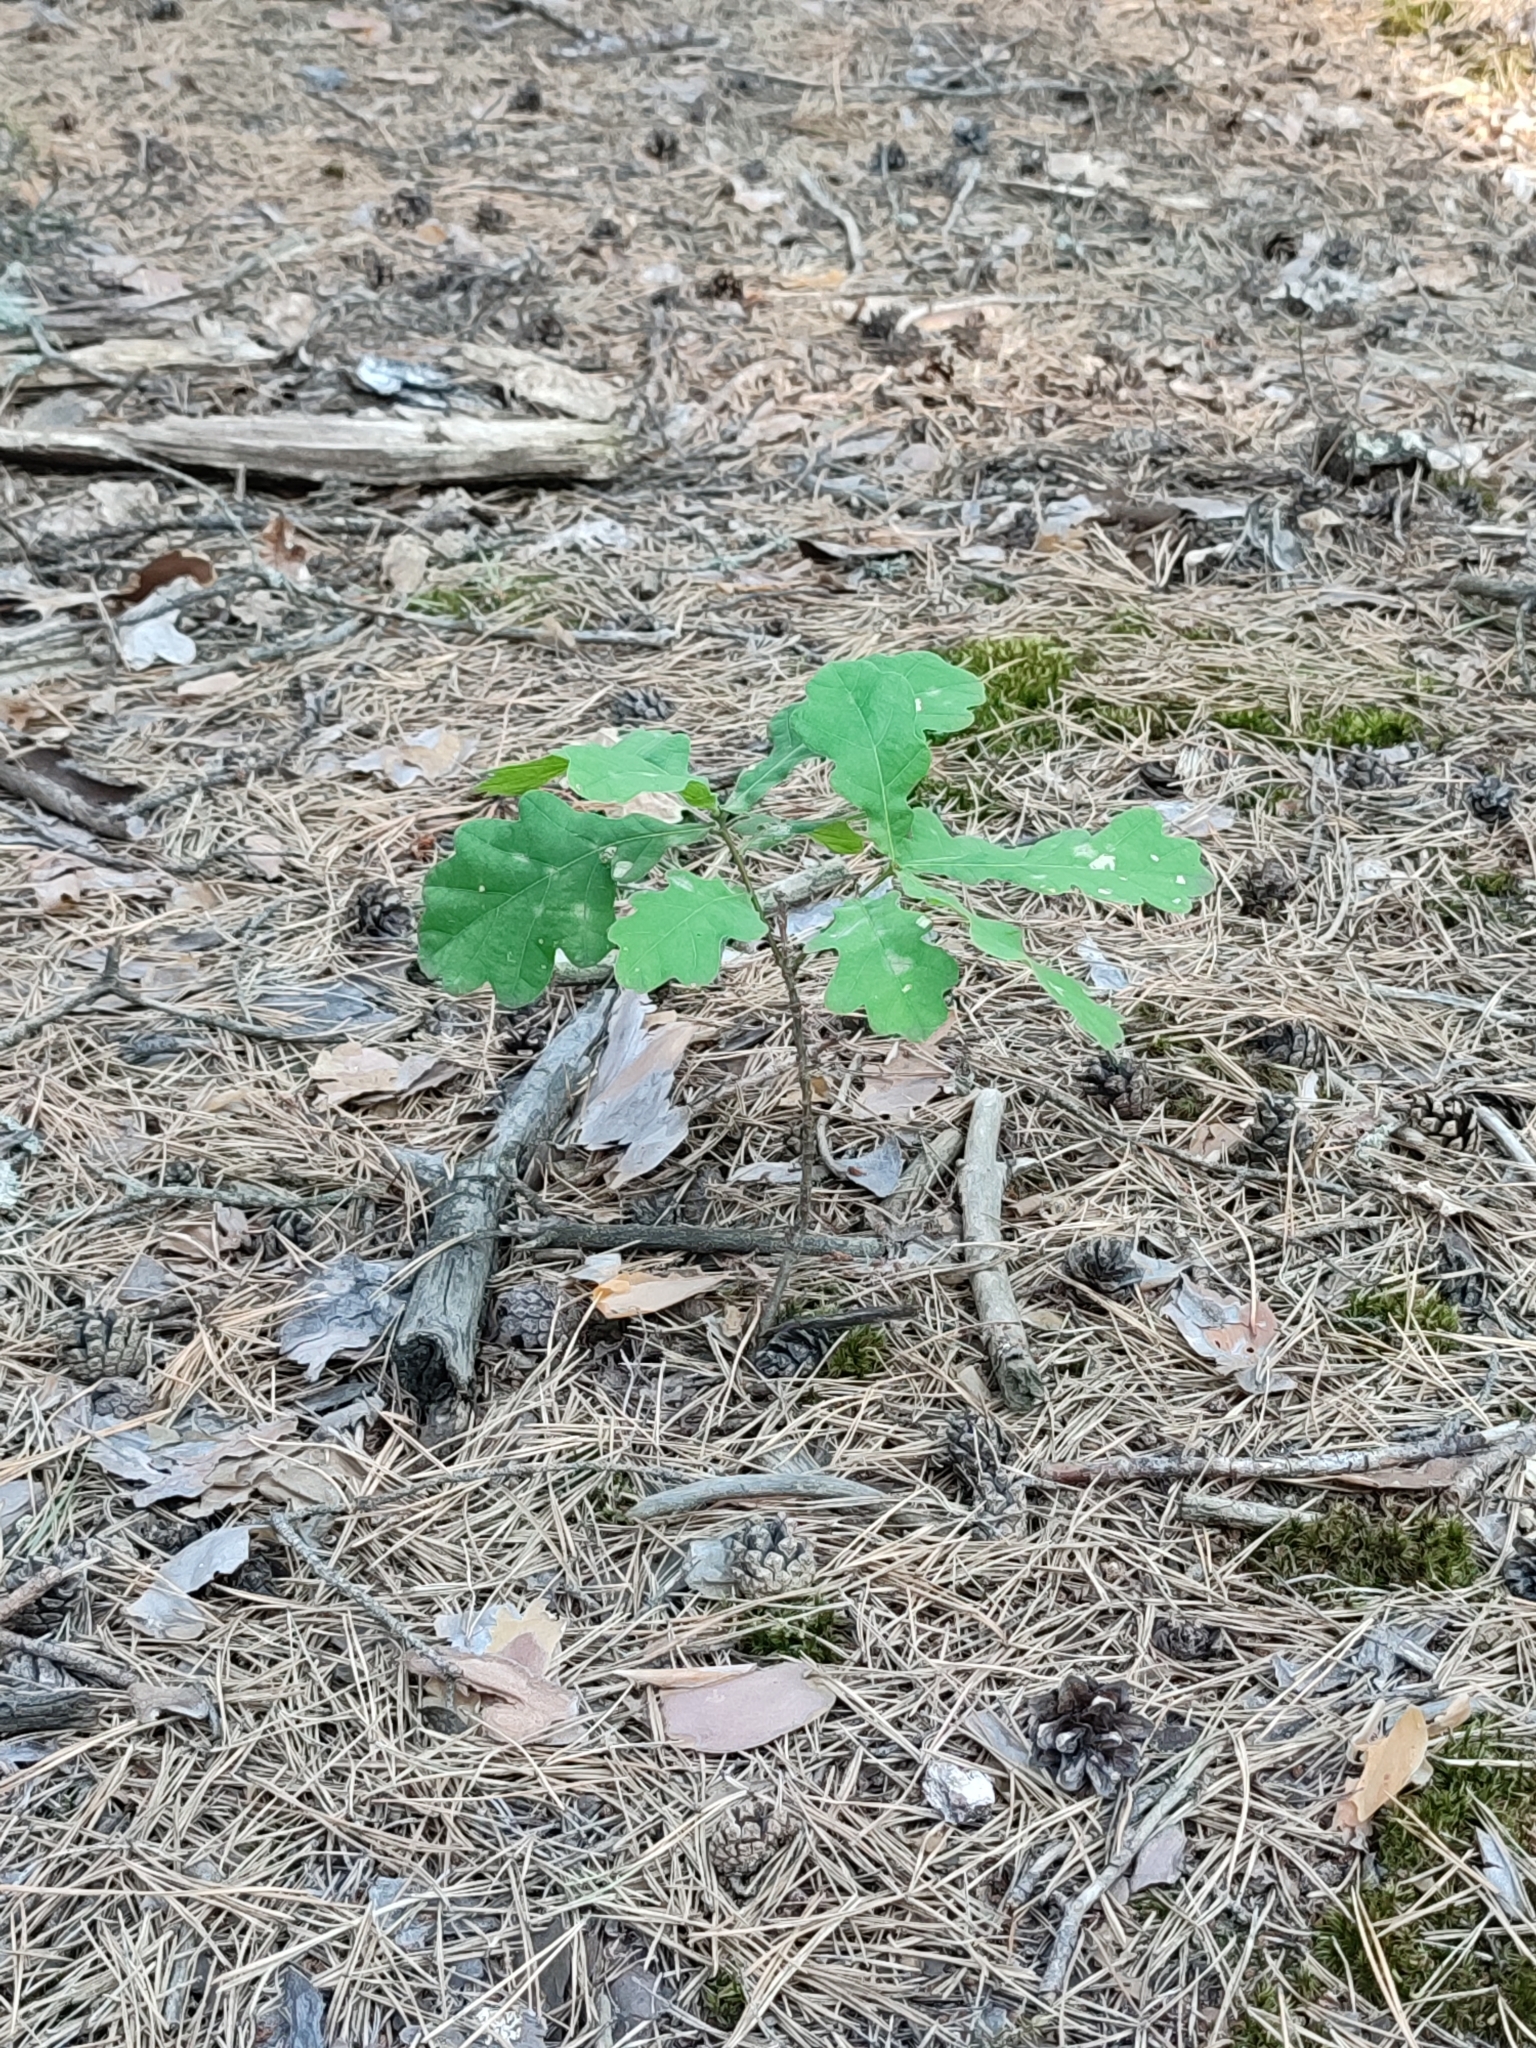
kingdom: Plantae
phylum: Tracheophyta
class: Magnoliopsida
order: Fagales
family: Fagaceae
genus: Quercus
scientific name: Quercus robur
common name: Pedunculate oak
